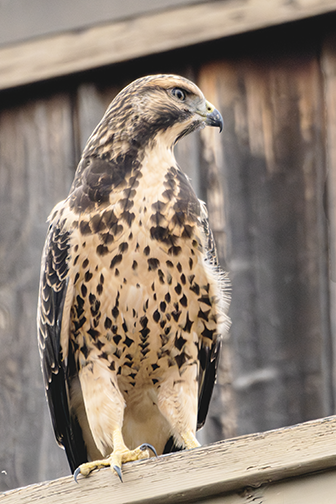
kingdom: Animalia
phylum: Chordata
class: Aves
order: Accipitriformes
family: Accipitridae
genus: Buteo
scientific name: Buteo swainsoni
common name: Swainson's hawk
